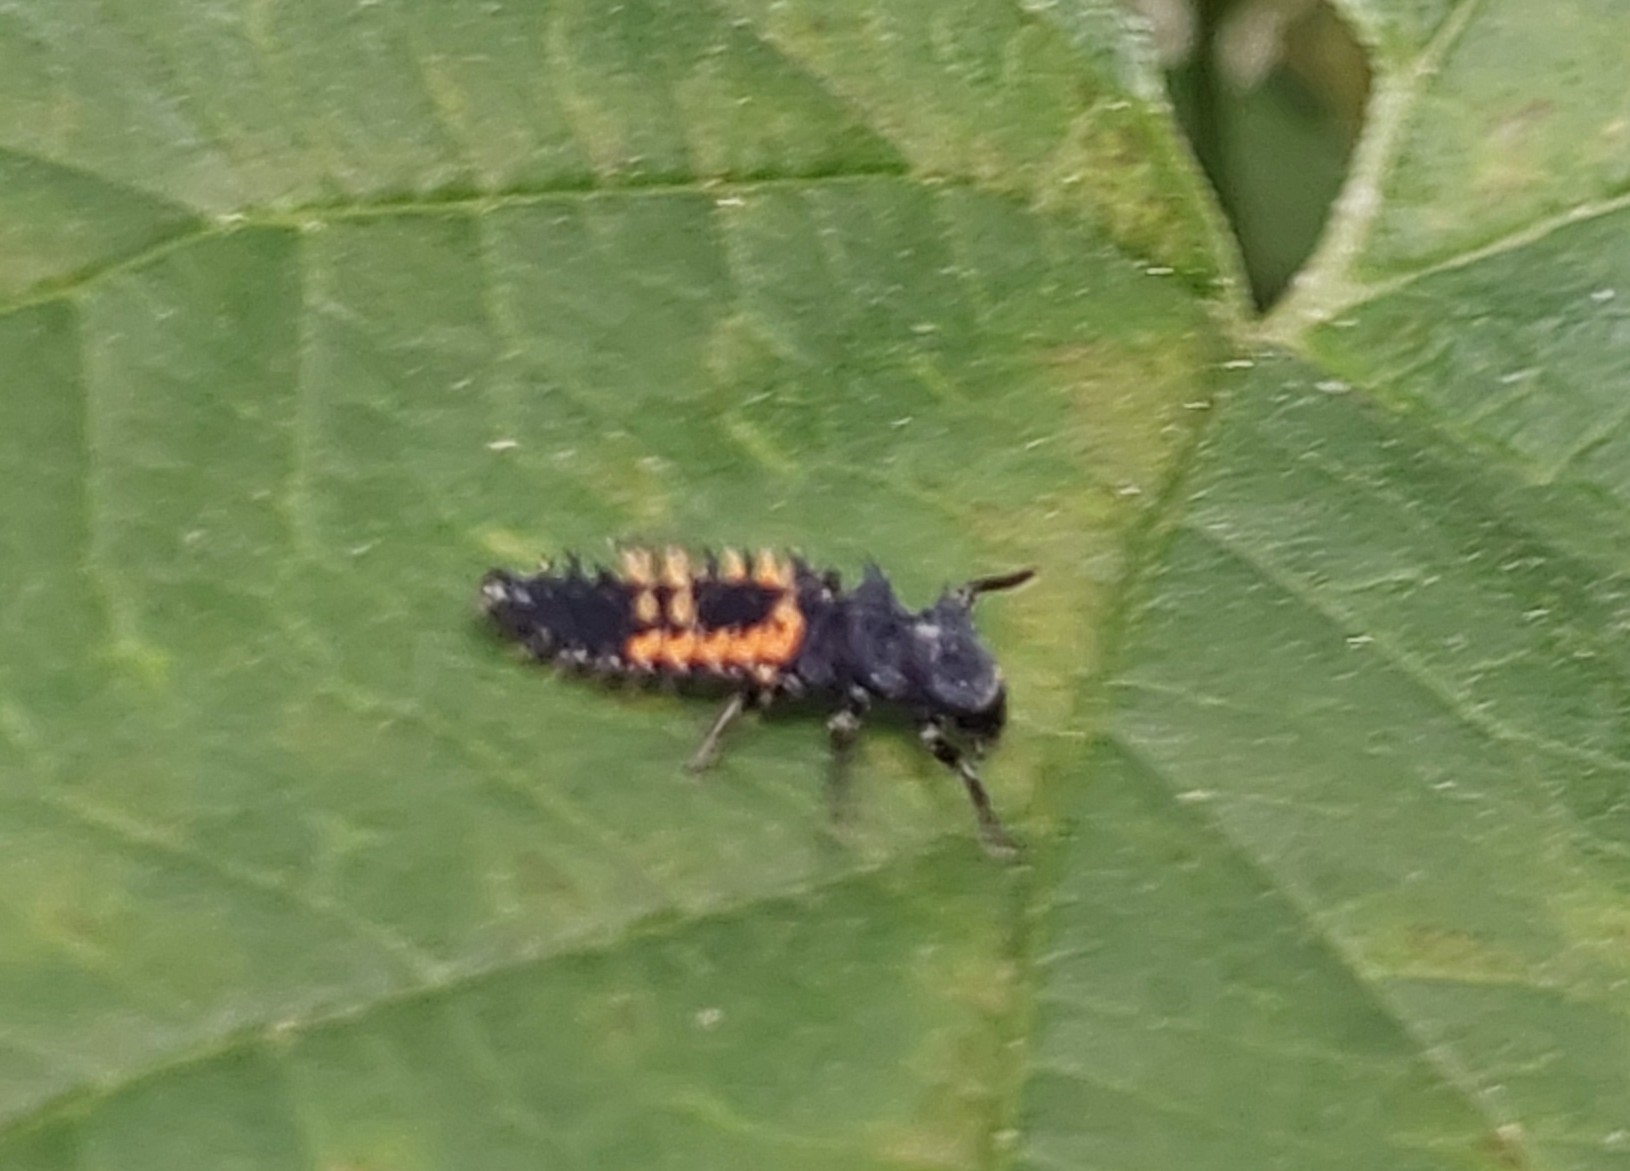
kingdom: Animalia
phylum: Arthropoda
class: Insecta
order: Coleoptera
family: Coccinellidae
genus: Harmonia
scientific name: Harmonia axyridis
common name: Harlequin ladybird
